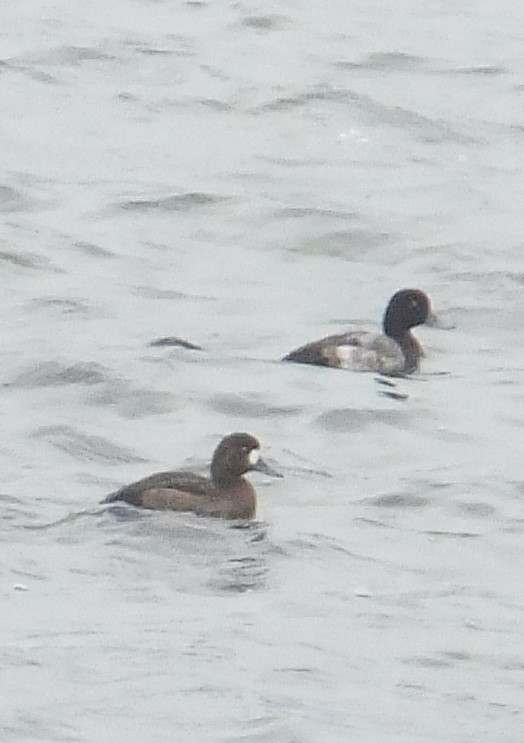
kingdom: Animalia
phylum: Chordata
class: Aves
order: Anseriformes
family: Anatidae
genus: Aythya
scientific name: Aythya marila
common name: Greater scaup
